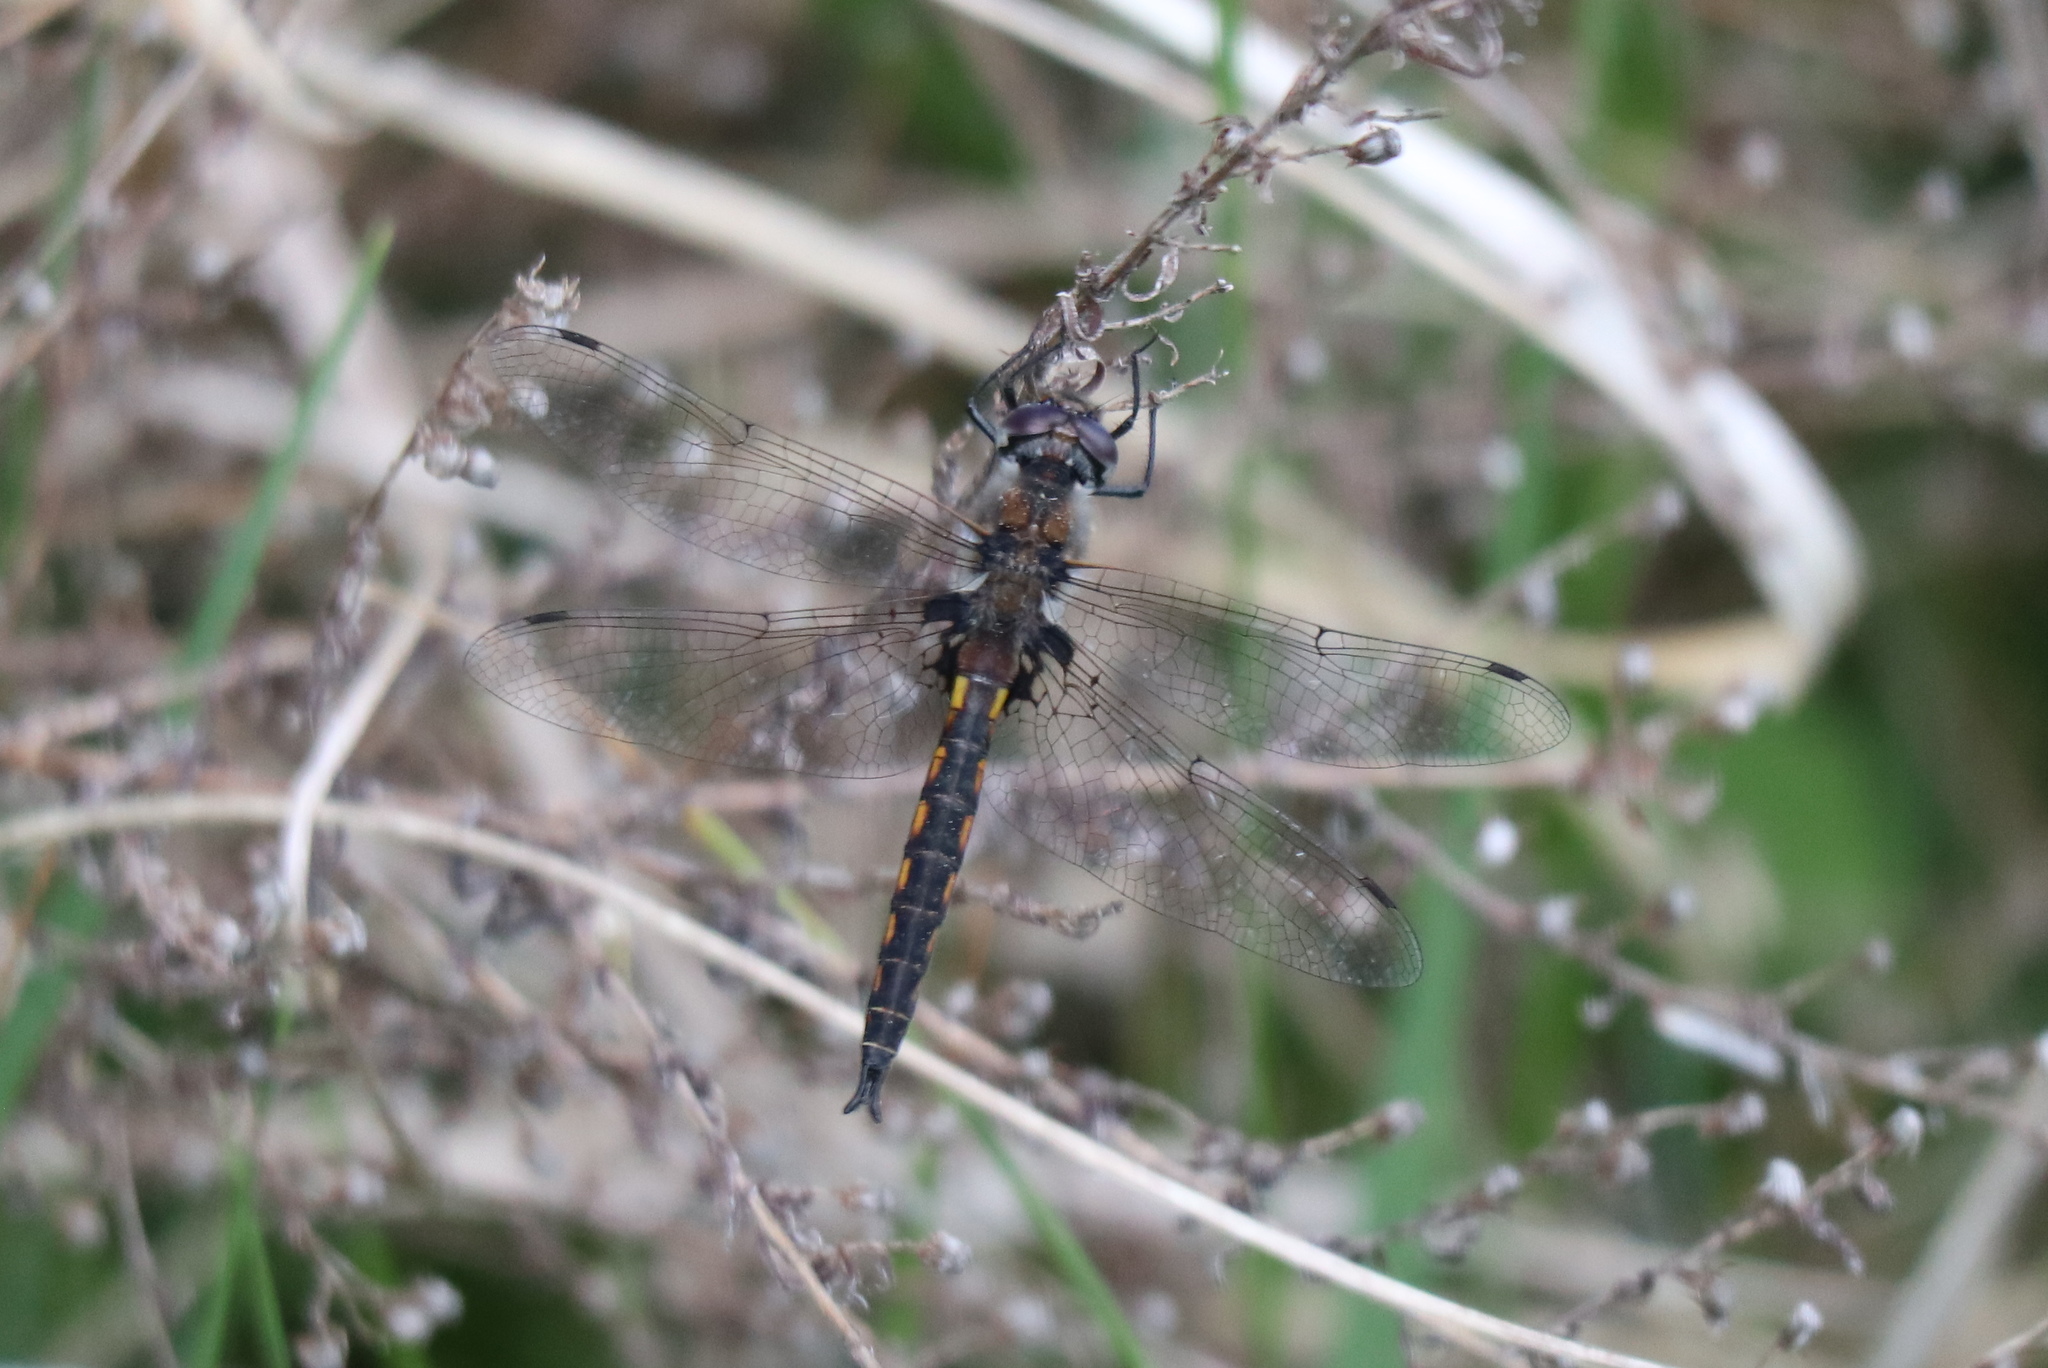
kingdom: Animalia
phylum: Arthropoda
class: Insecta
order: Odonata
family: Corduliidae
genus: Epitheca
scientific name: Epitheca cynosura
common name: Common baskettail
